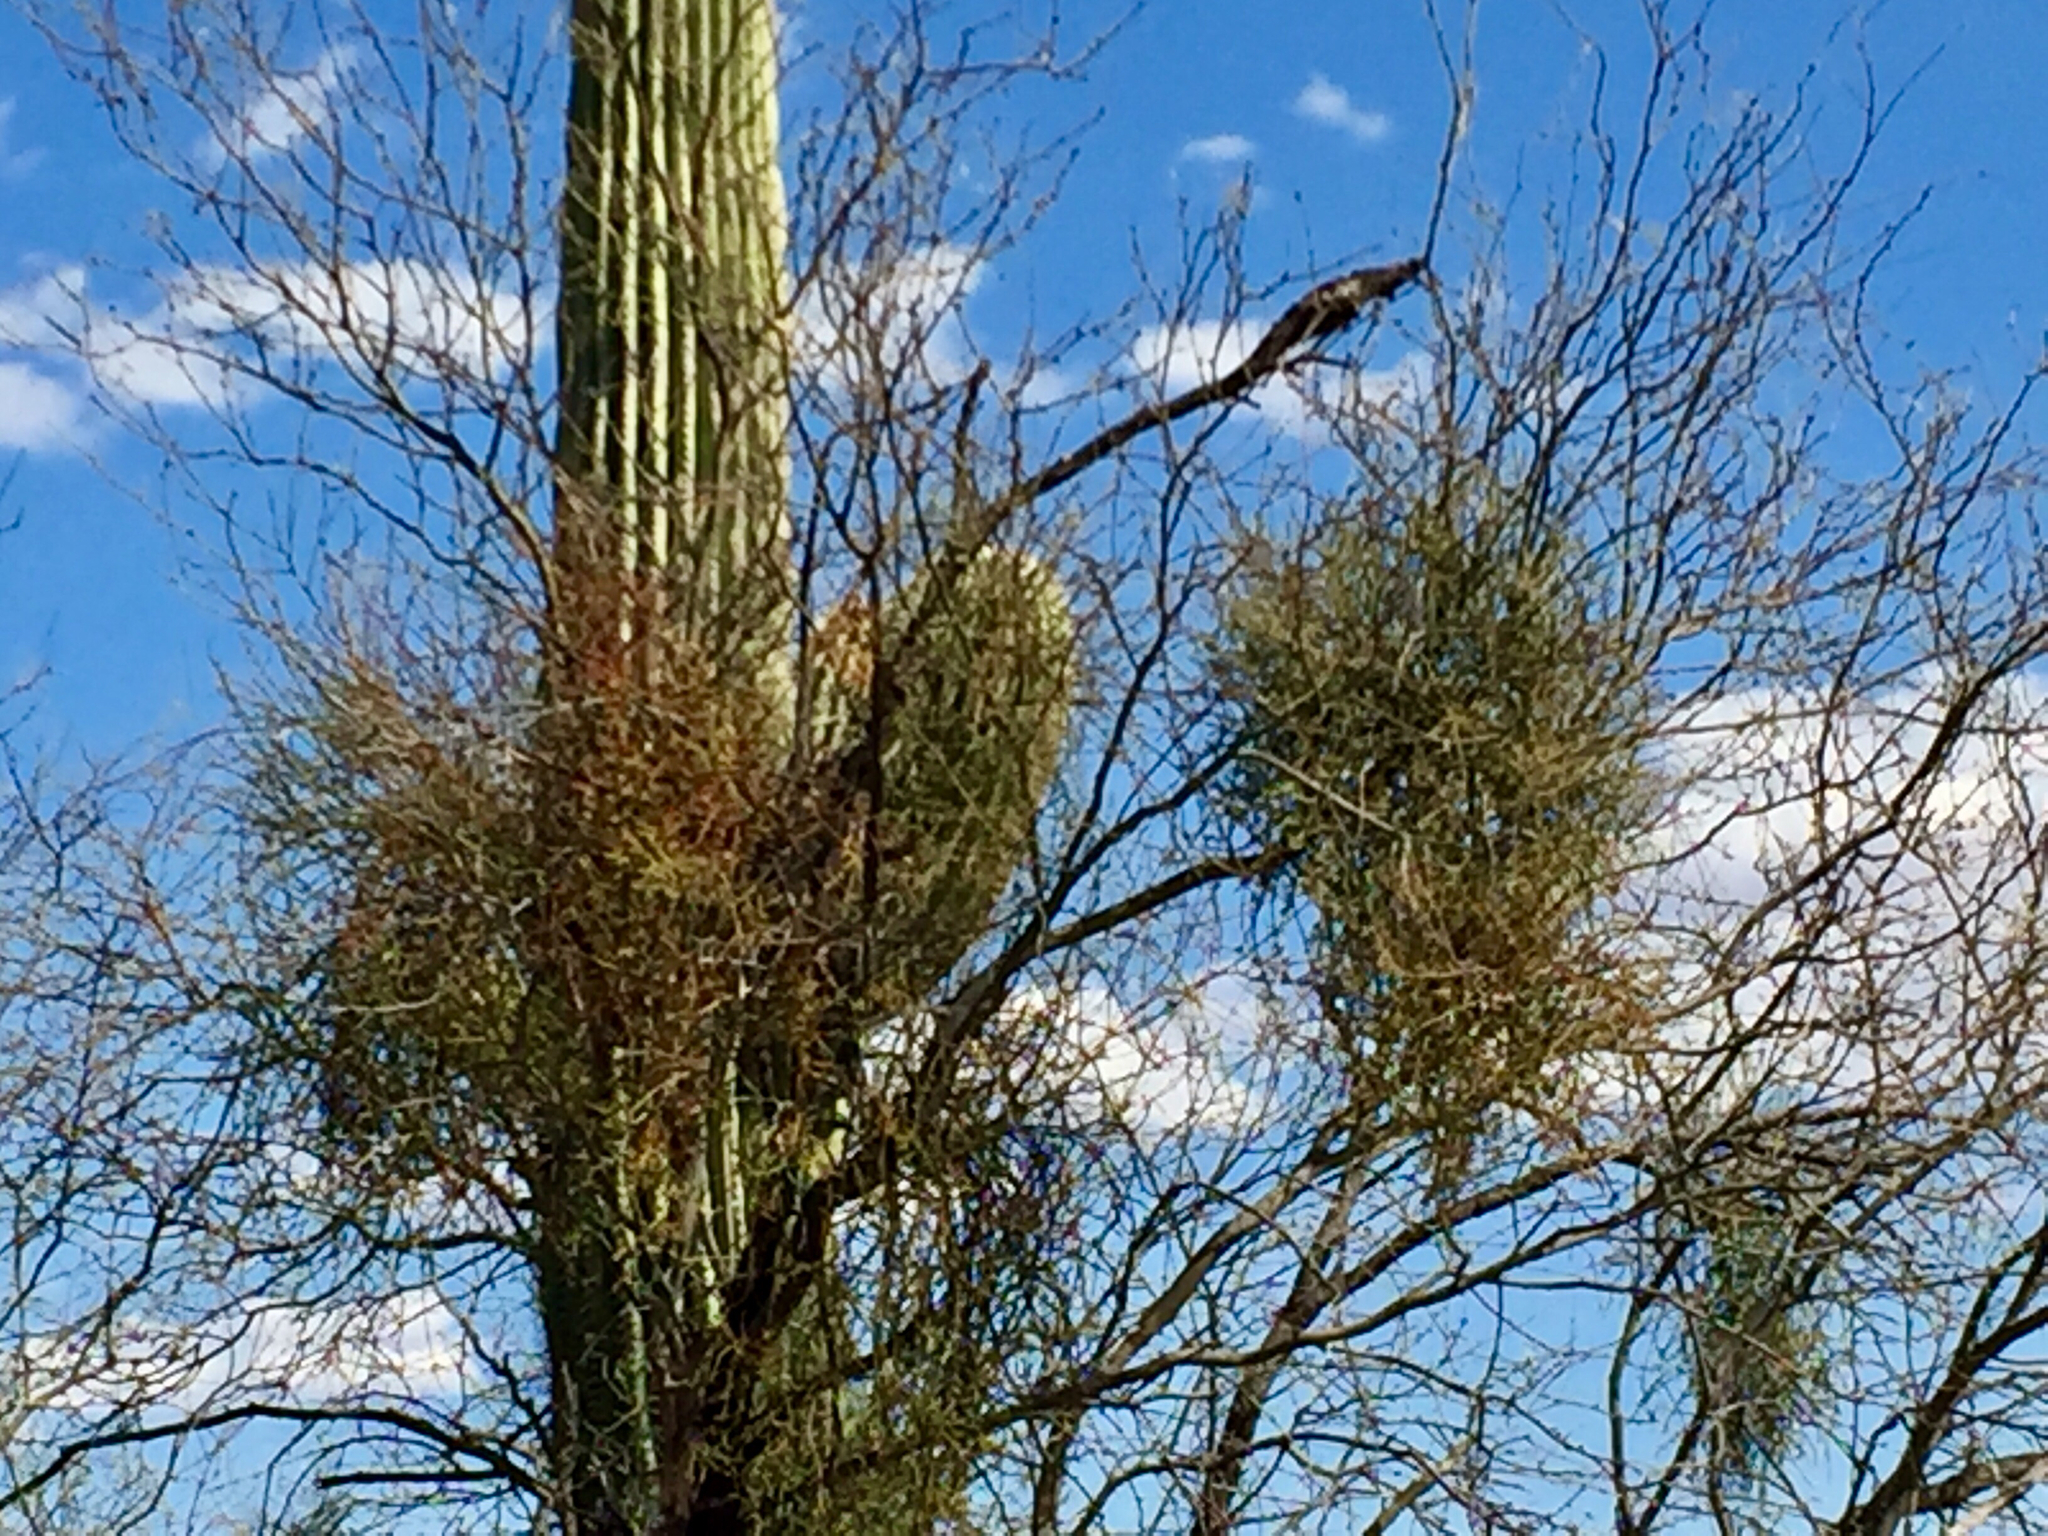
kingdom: Plantae
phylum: Tracheophyta
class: Magnoliopsida
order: Santalales
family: Viscaceae
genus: Phoradendron
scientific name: Phoradendron californicum
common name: Acacia mistletoe
